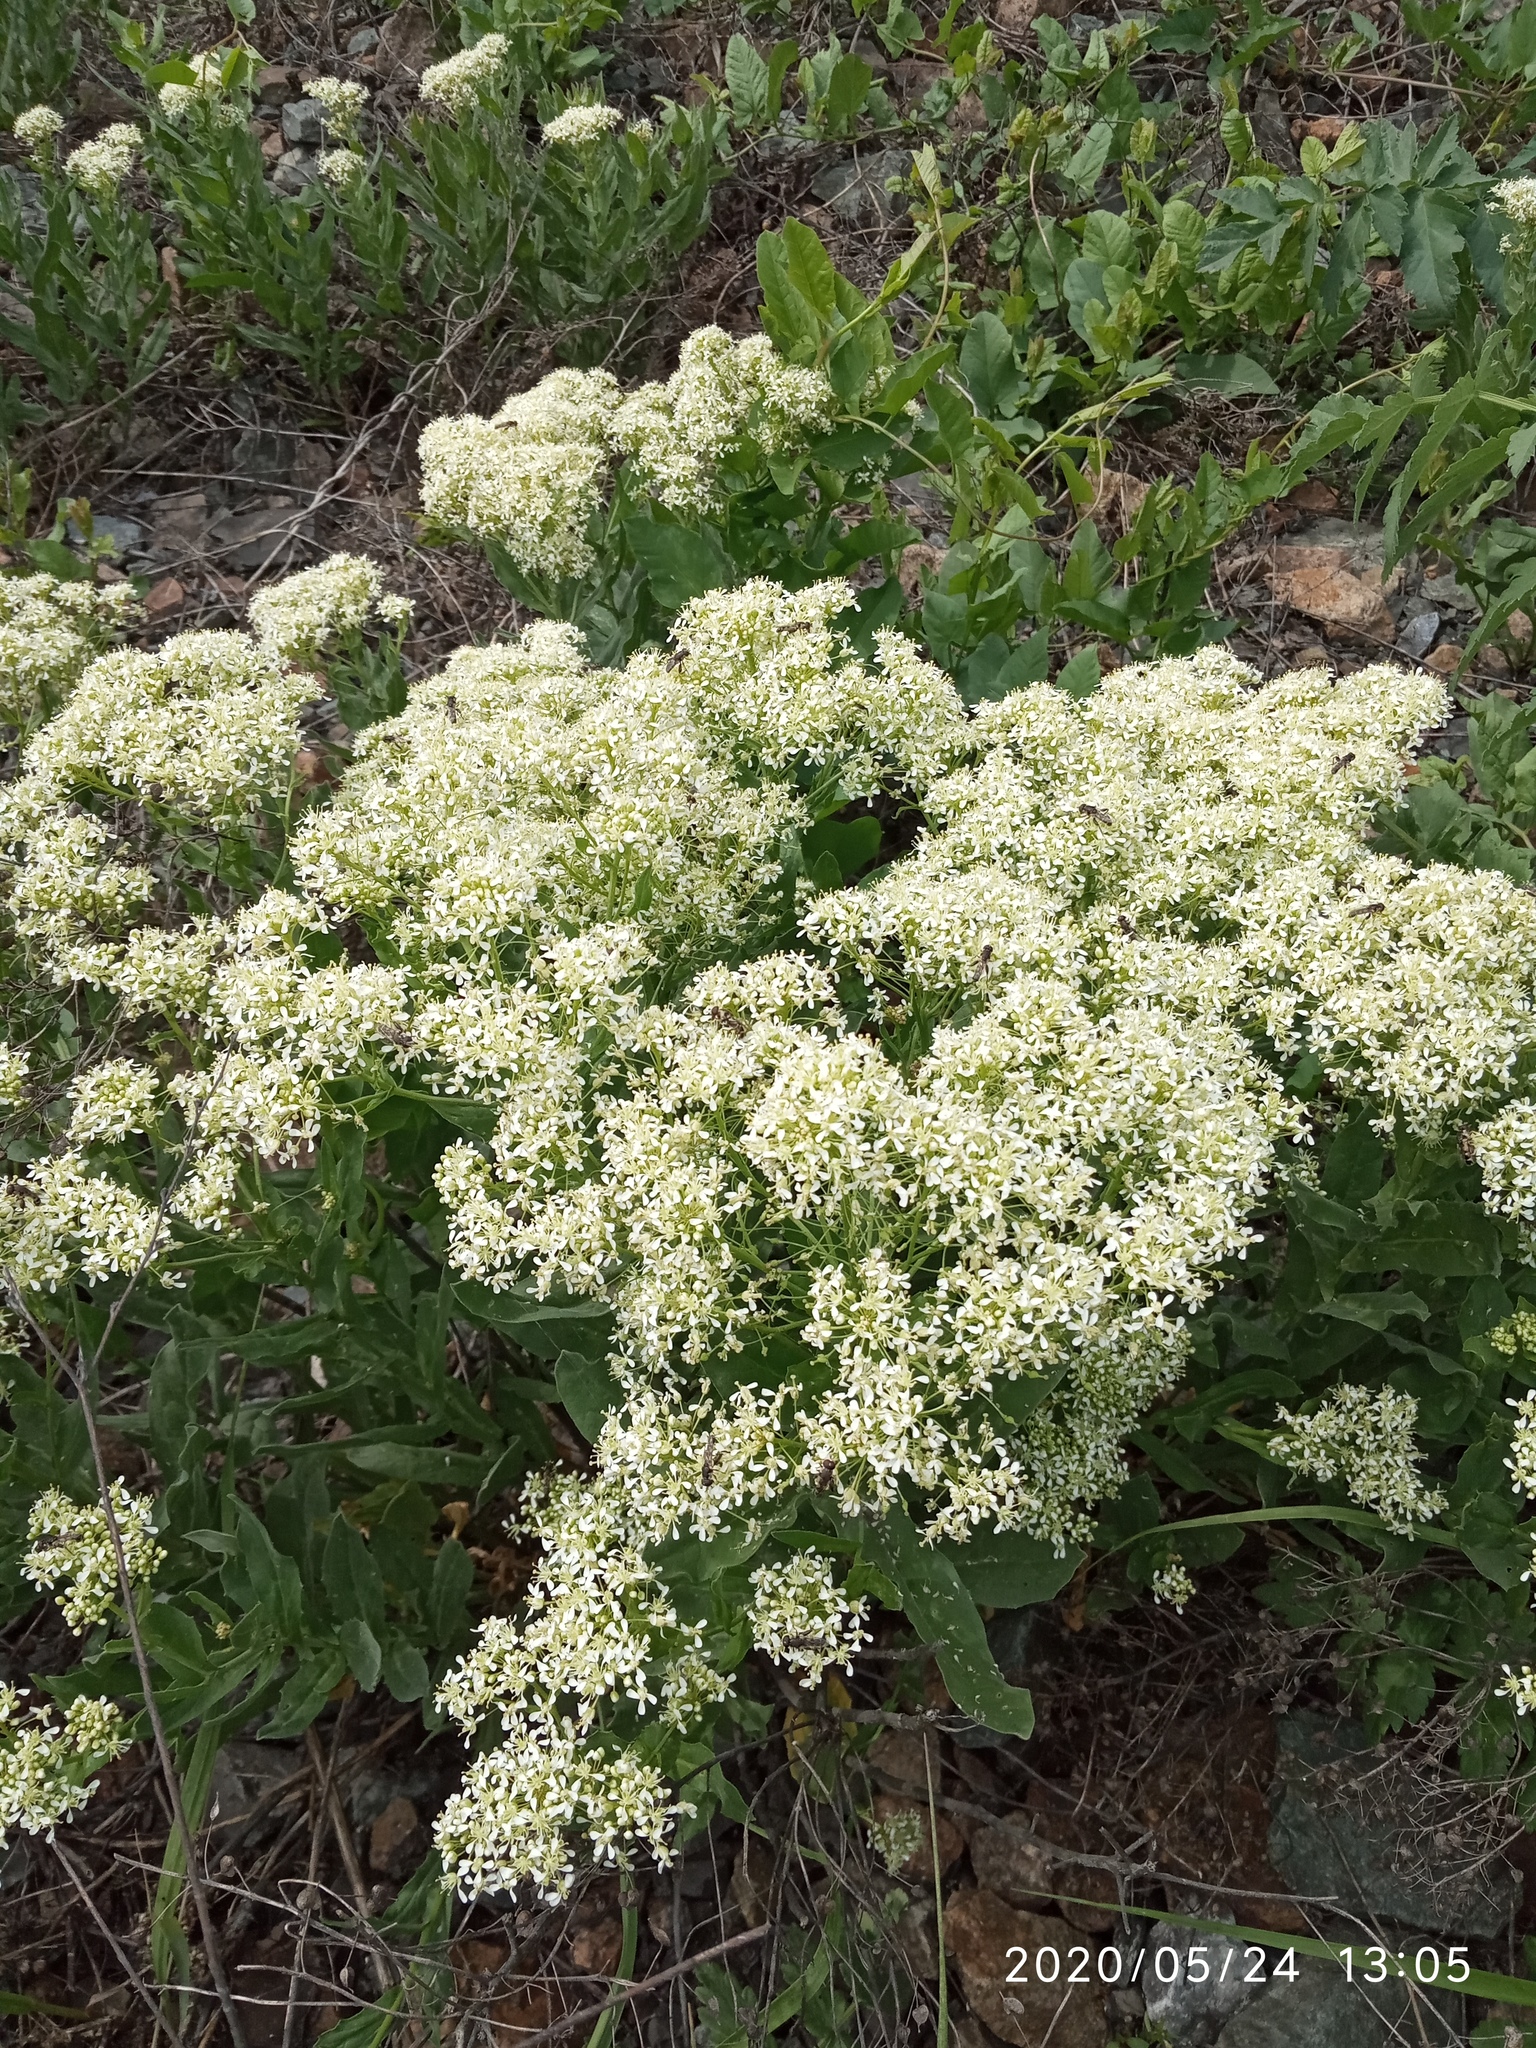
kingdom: Plantae
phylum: Tracheophyta
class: Magnoliopsida
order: Brassicales
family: Brassicaceae
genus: Lepidium
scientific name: Lepidium draba
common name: Hoary cress
